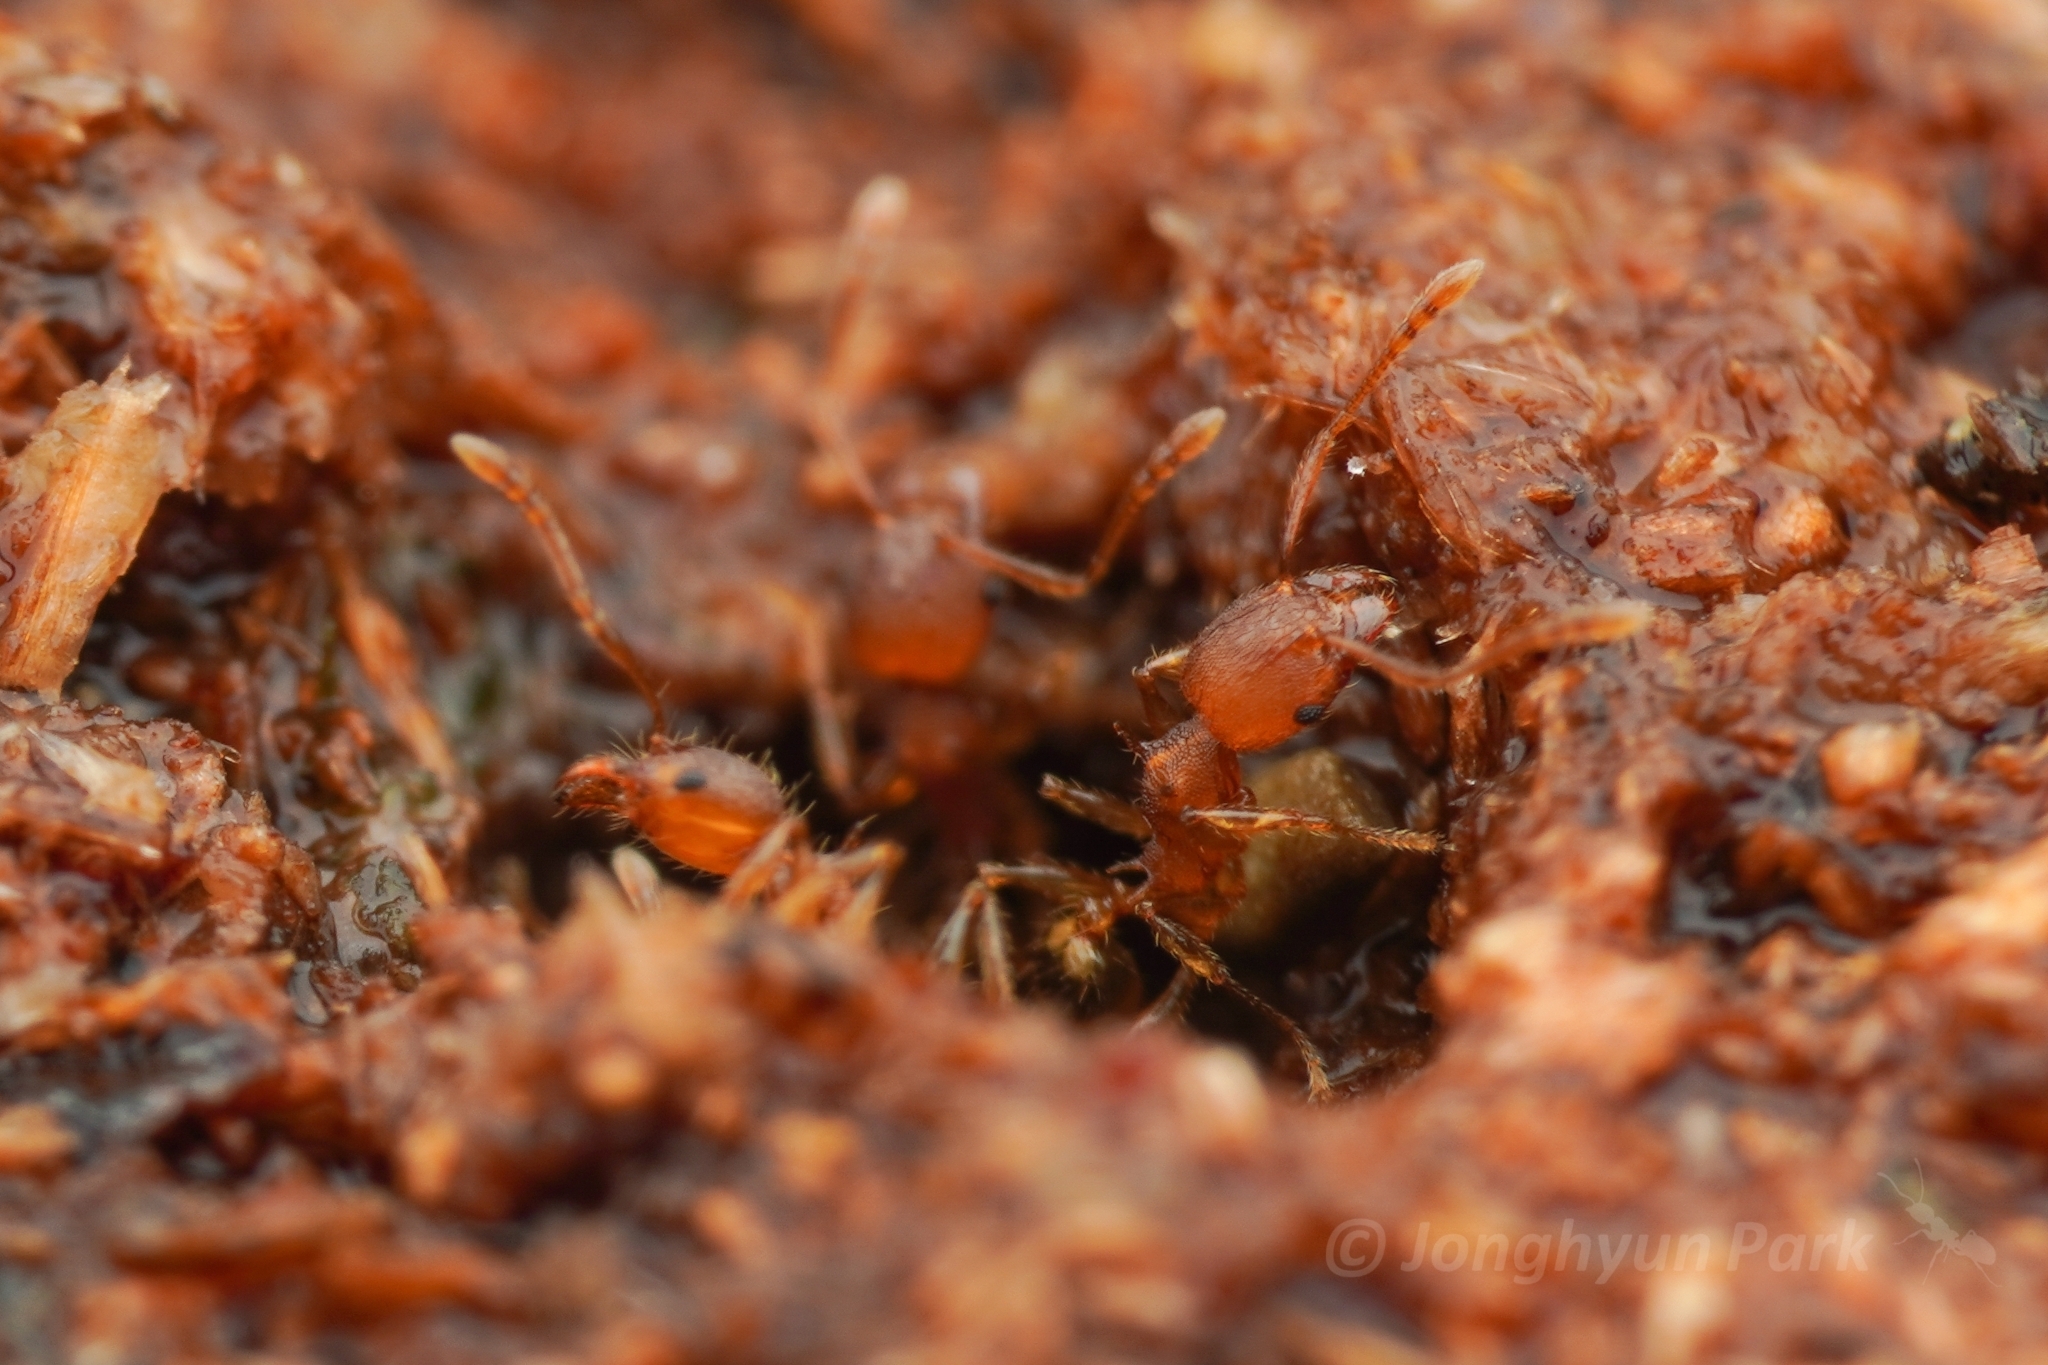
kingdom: Animalia
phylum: Arthropoda
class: Insecta
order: Hymenoptera
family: Formicidae
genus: Pheidole
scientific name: Pheidole aristotelis
